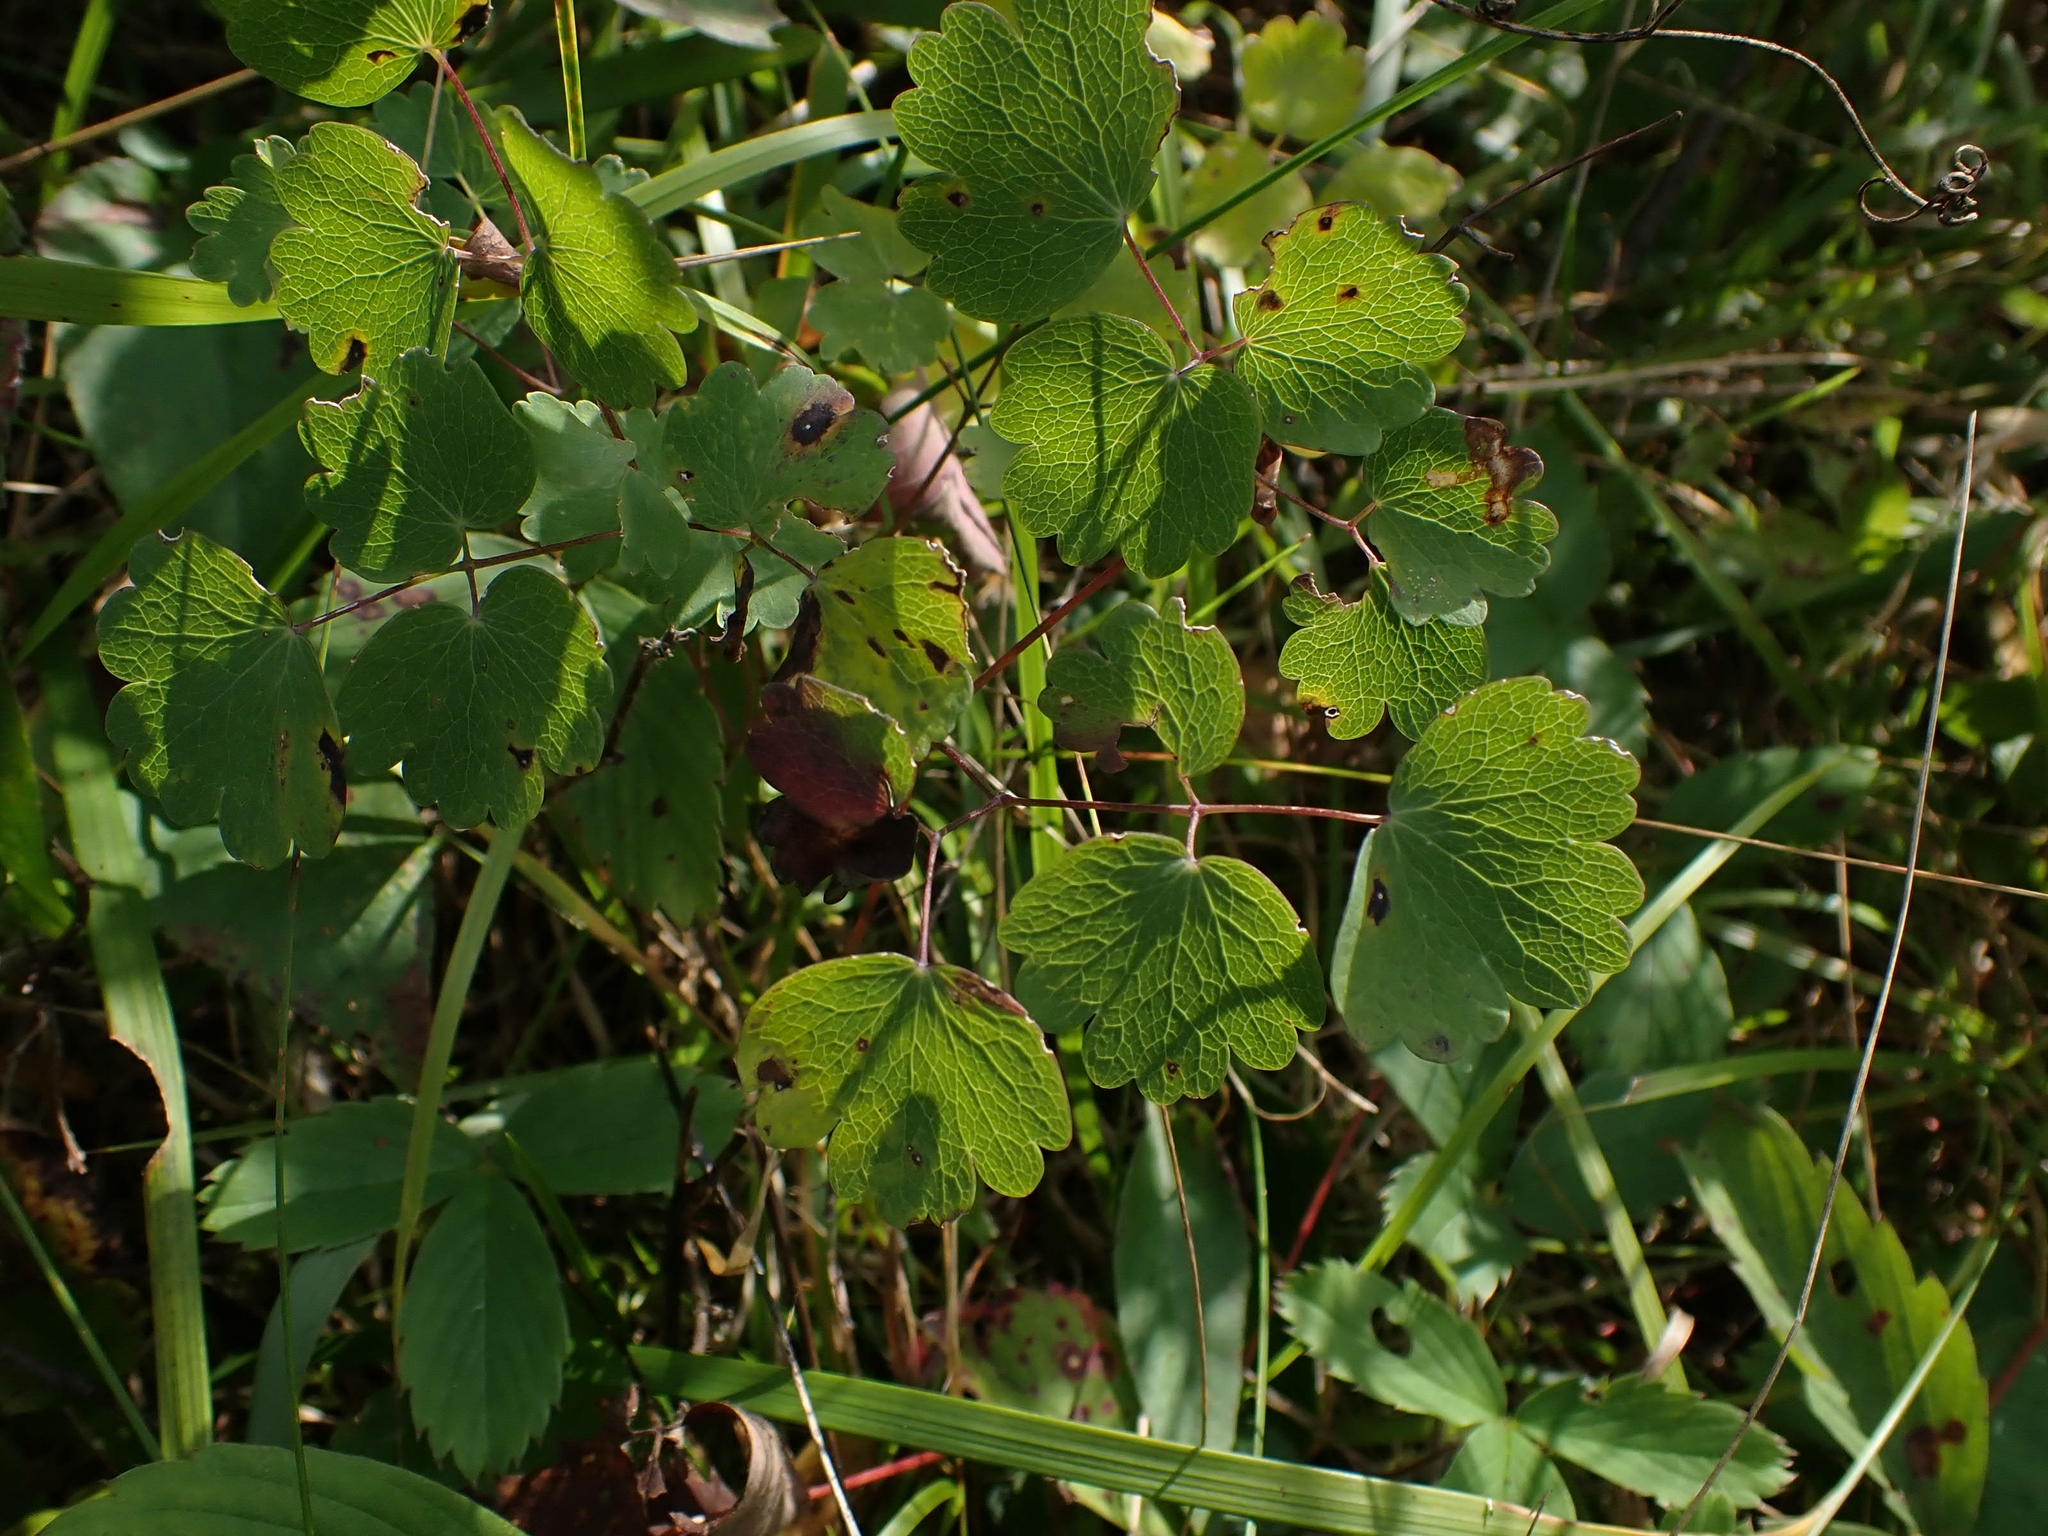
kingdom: Plantae
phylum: Tracheophyta
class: Magnoliopsida
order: Ranunculales
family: Ranunculaceae
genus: Thalictrum
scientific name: Thalictrum venulosum
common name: Early meadow-rue
